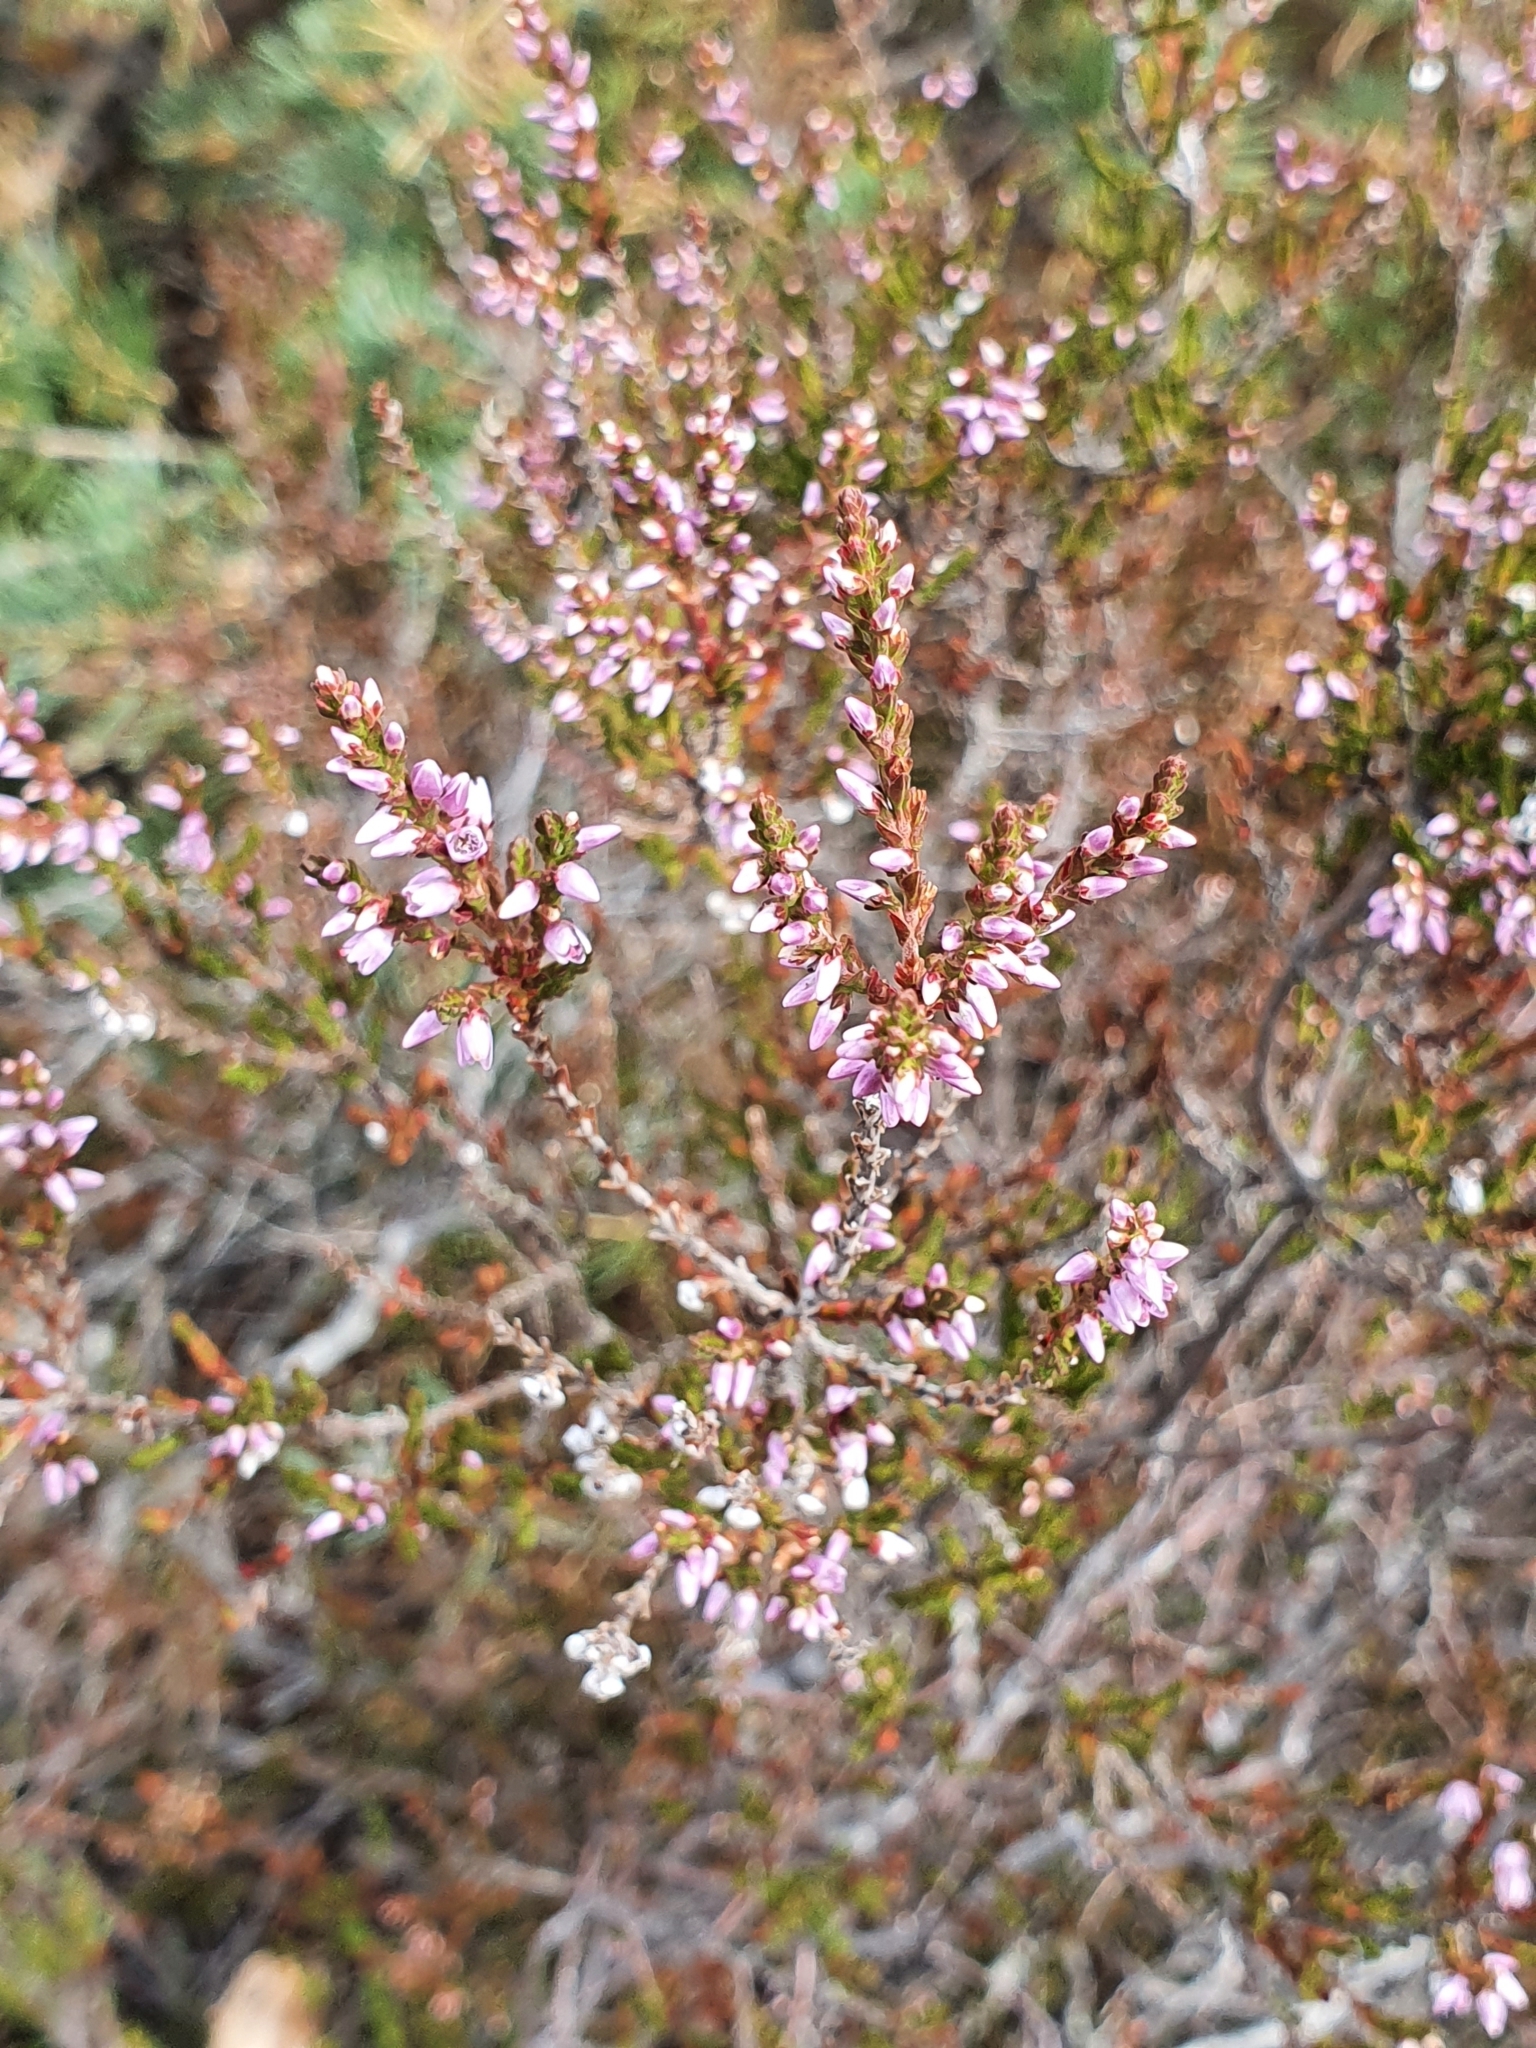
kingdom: Plantae
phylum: Tracheophyta
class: Magnoliopsida
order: Ericales
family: Ericaceae
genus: Calluna
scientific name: Calluna vulgaris
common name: Heather
